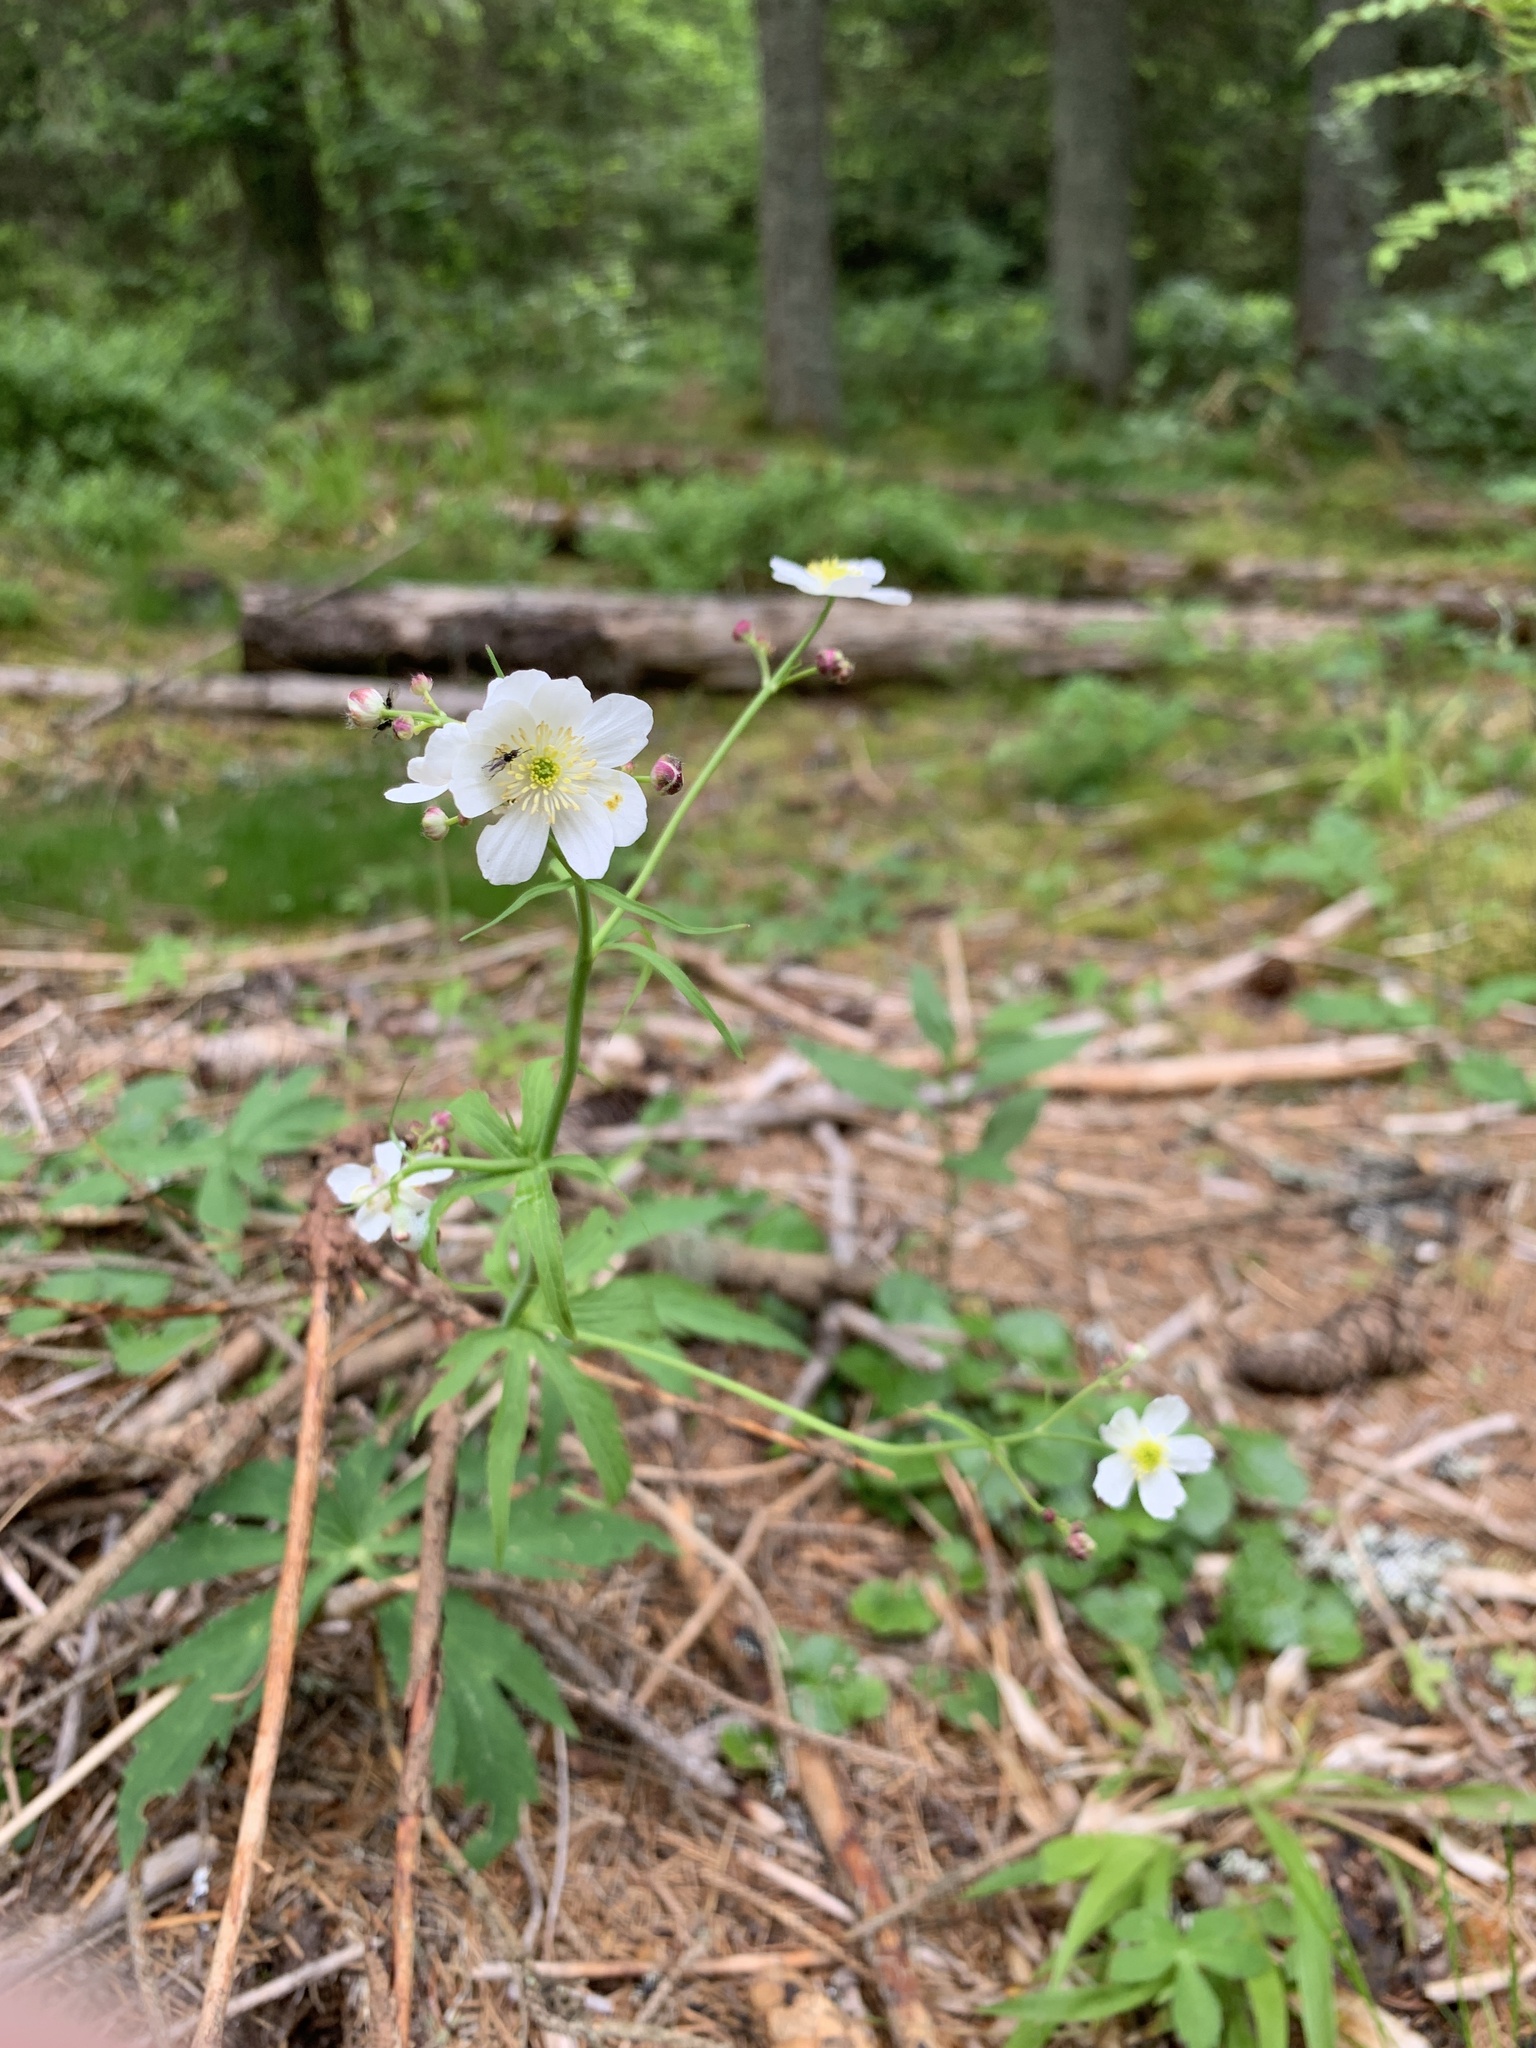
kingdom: Plantae
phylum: Tracheophyta
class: Magnoliopsida
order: Ranunculales
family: Ranunculaceae
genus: Ranunculus
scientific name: Ranunculus platanifolius
